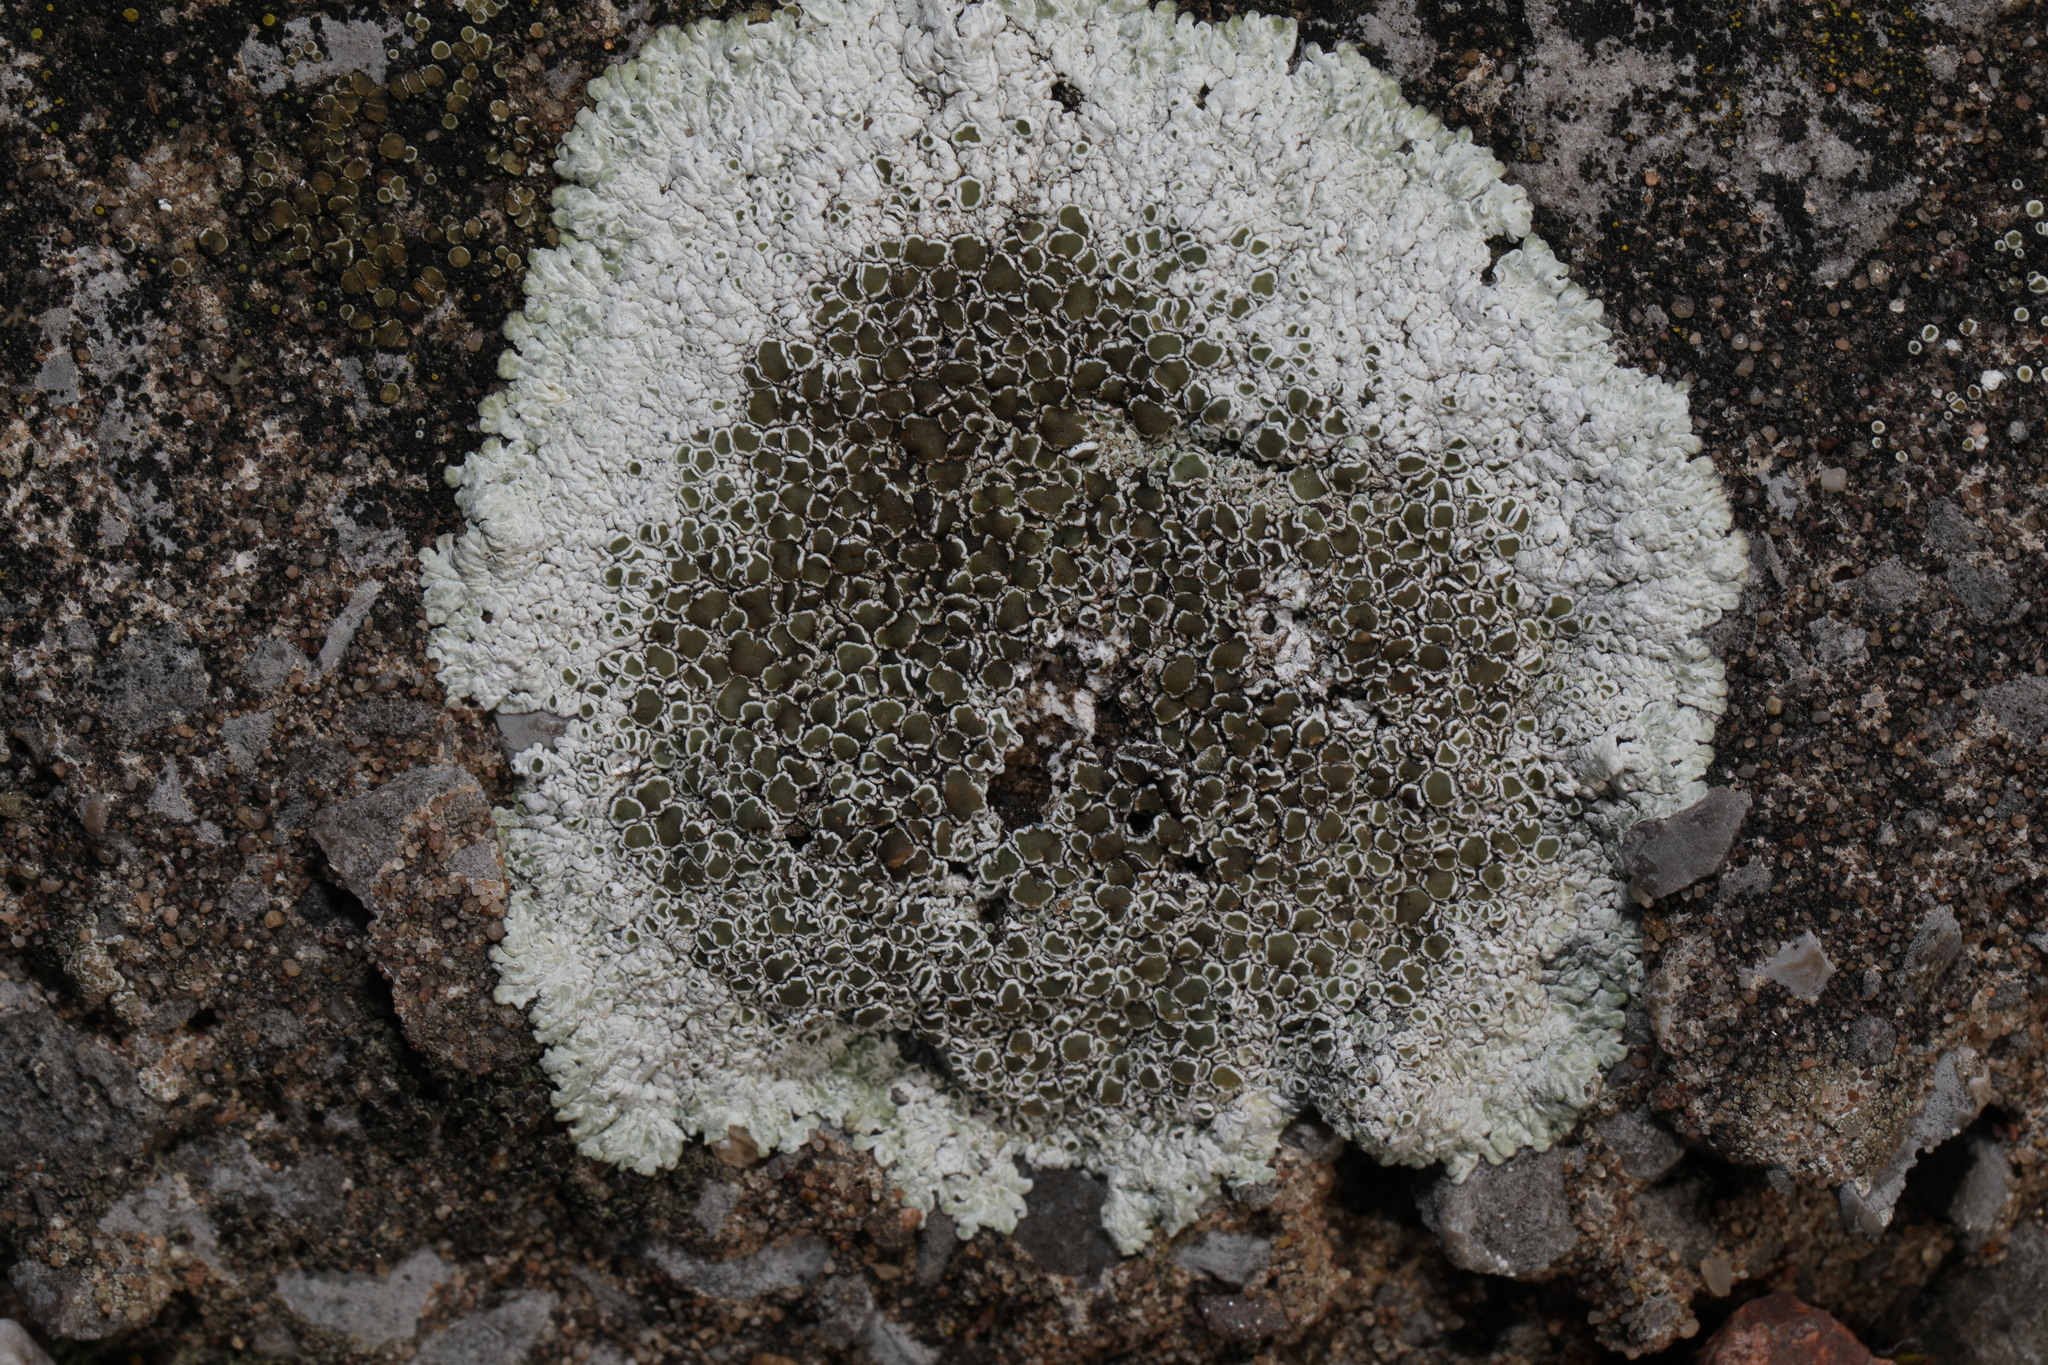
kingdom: Fungi
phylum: Ascomycota
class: Lecanoromycetes
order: Lecanorales
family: Lecanoraceae
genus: Protoparmeliopsis
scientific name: Protoparmeliopsis muralis
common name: Stonewall rim lichen
